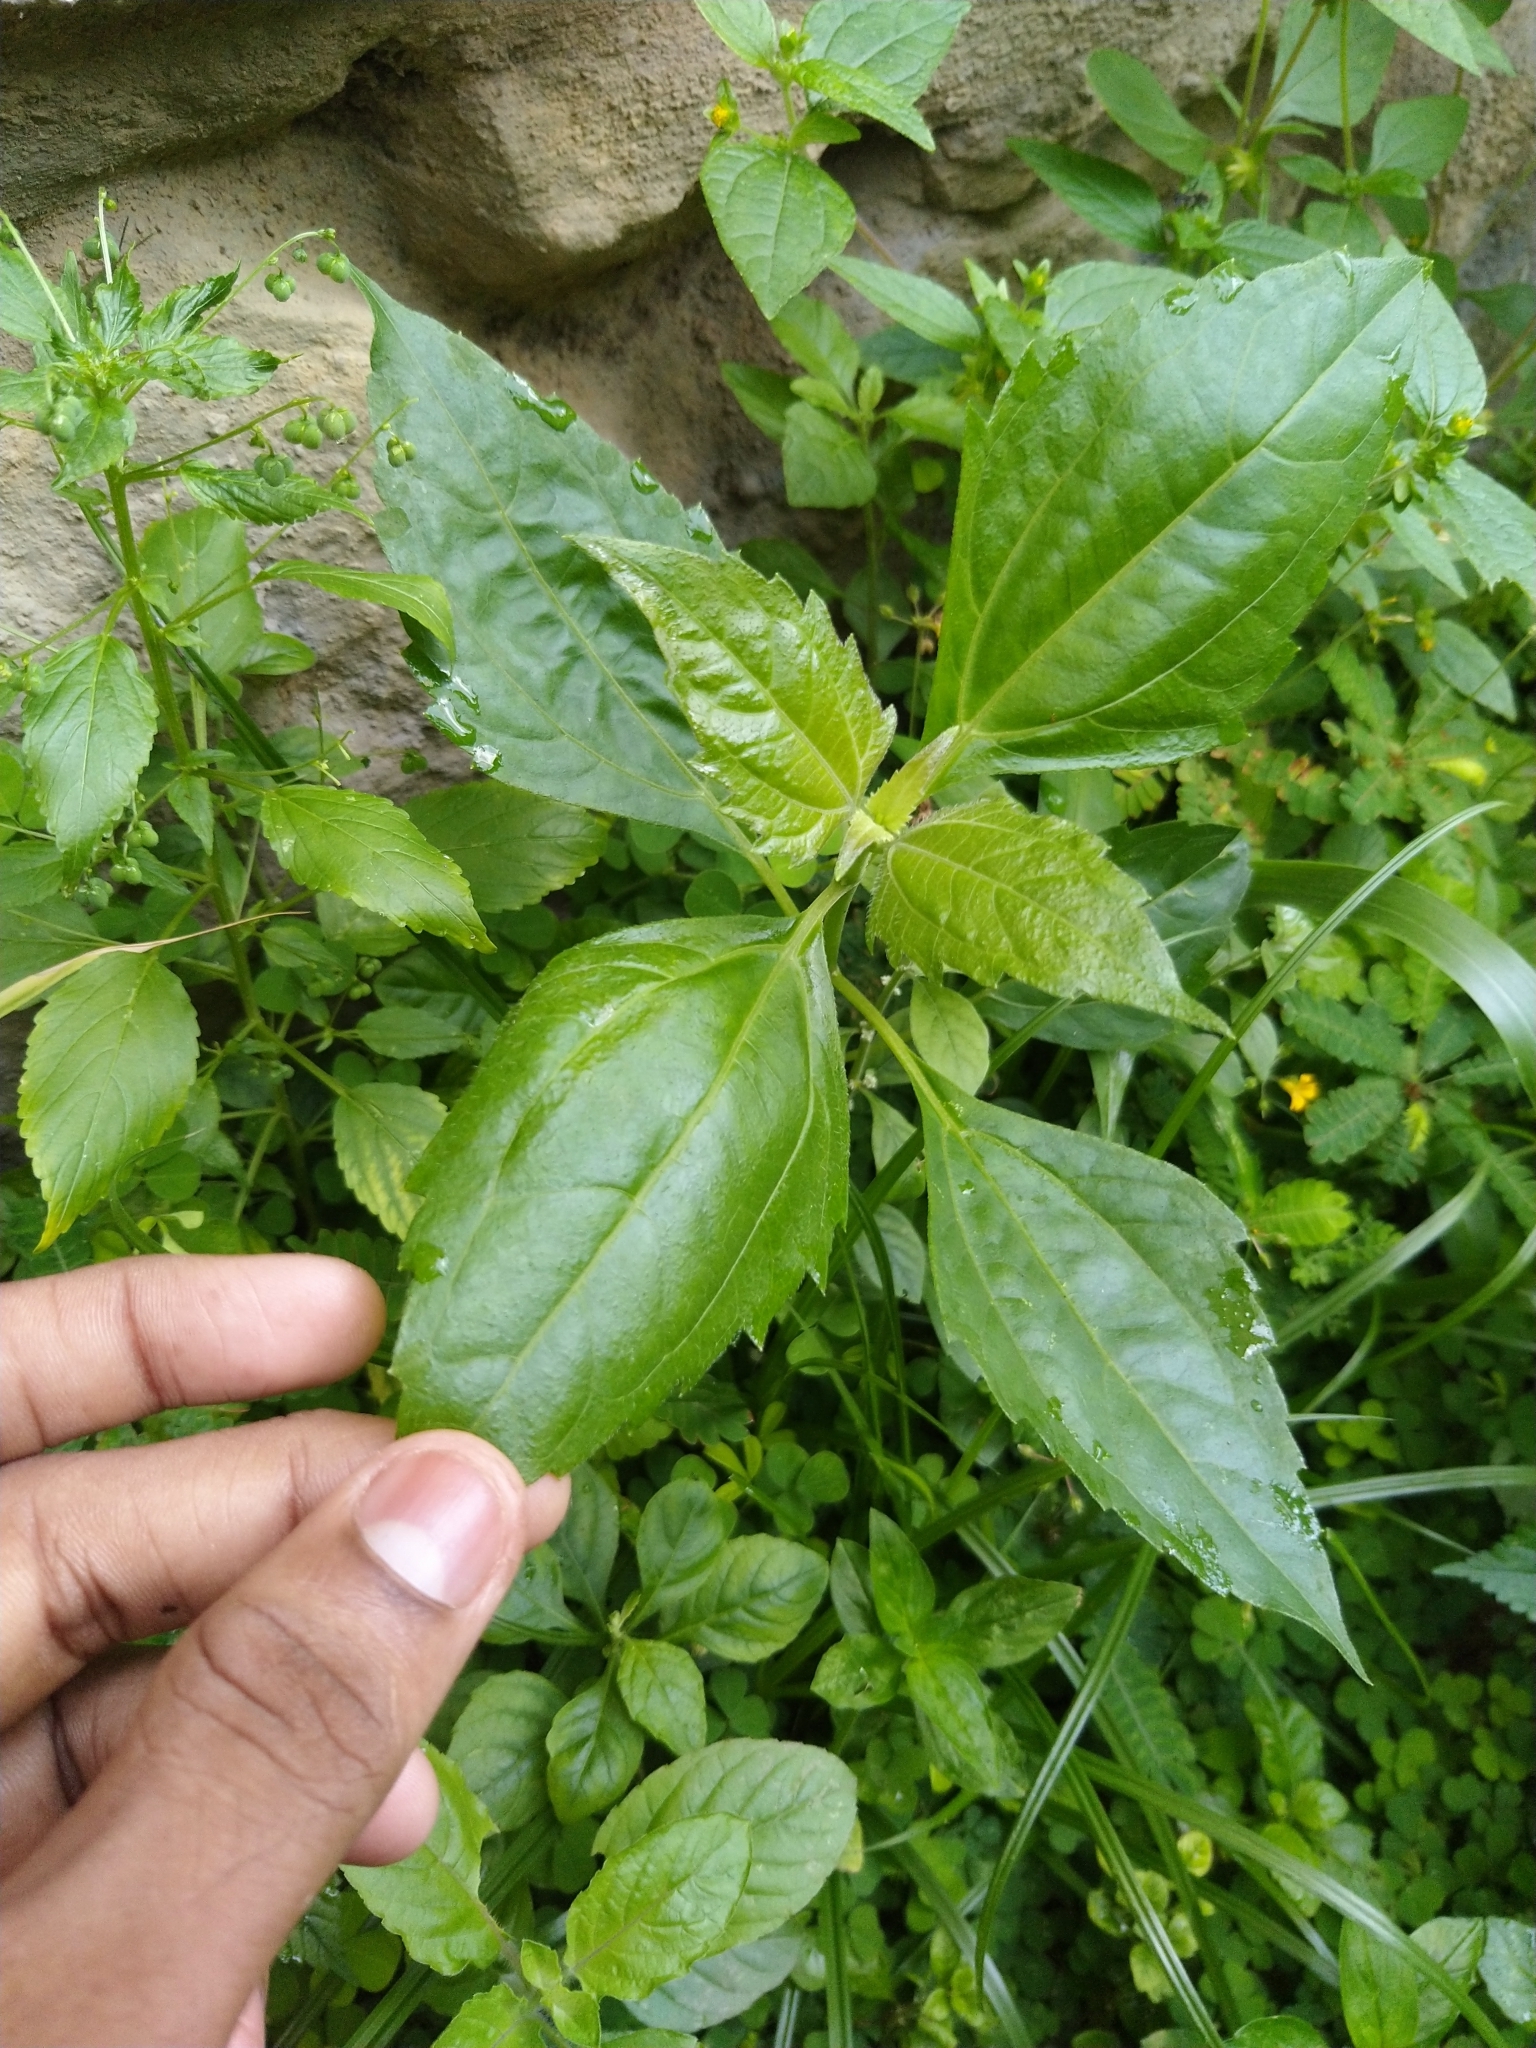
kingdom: Plantae
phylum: Tracheophyta
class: Magnoliopsida
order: Asterales
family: Asteraceae
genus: Chromolaena
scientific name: Chromolaena odorata
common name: Siamweed
